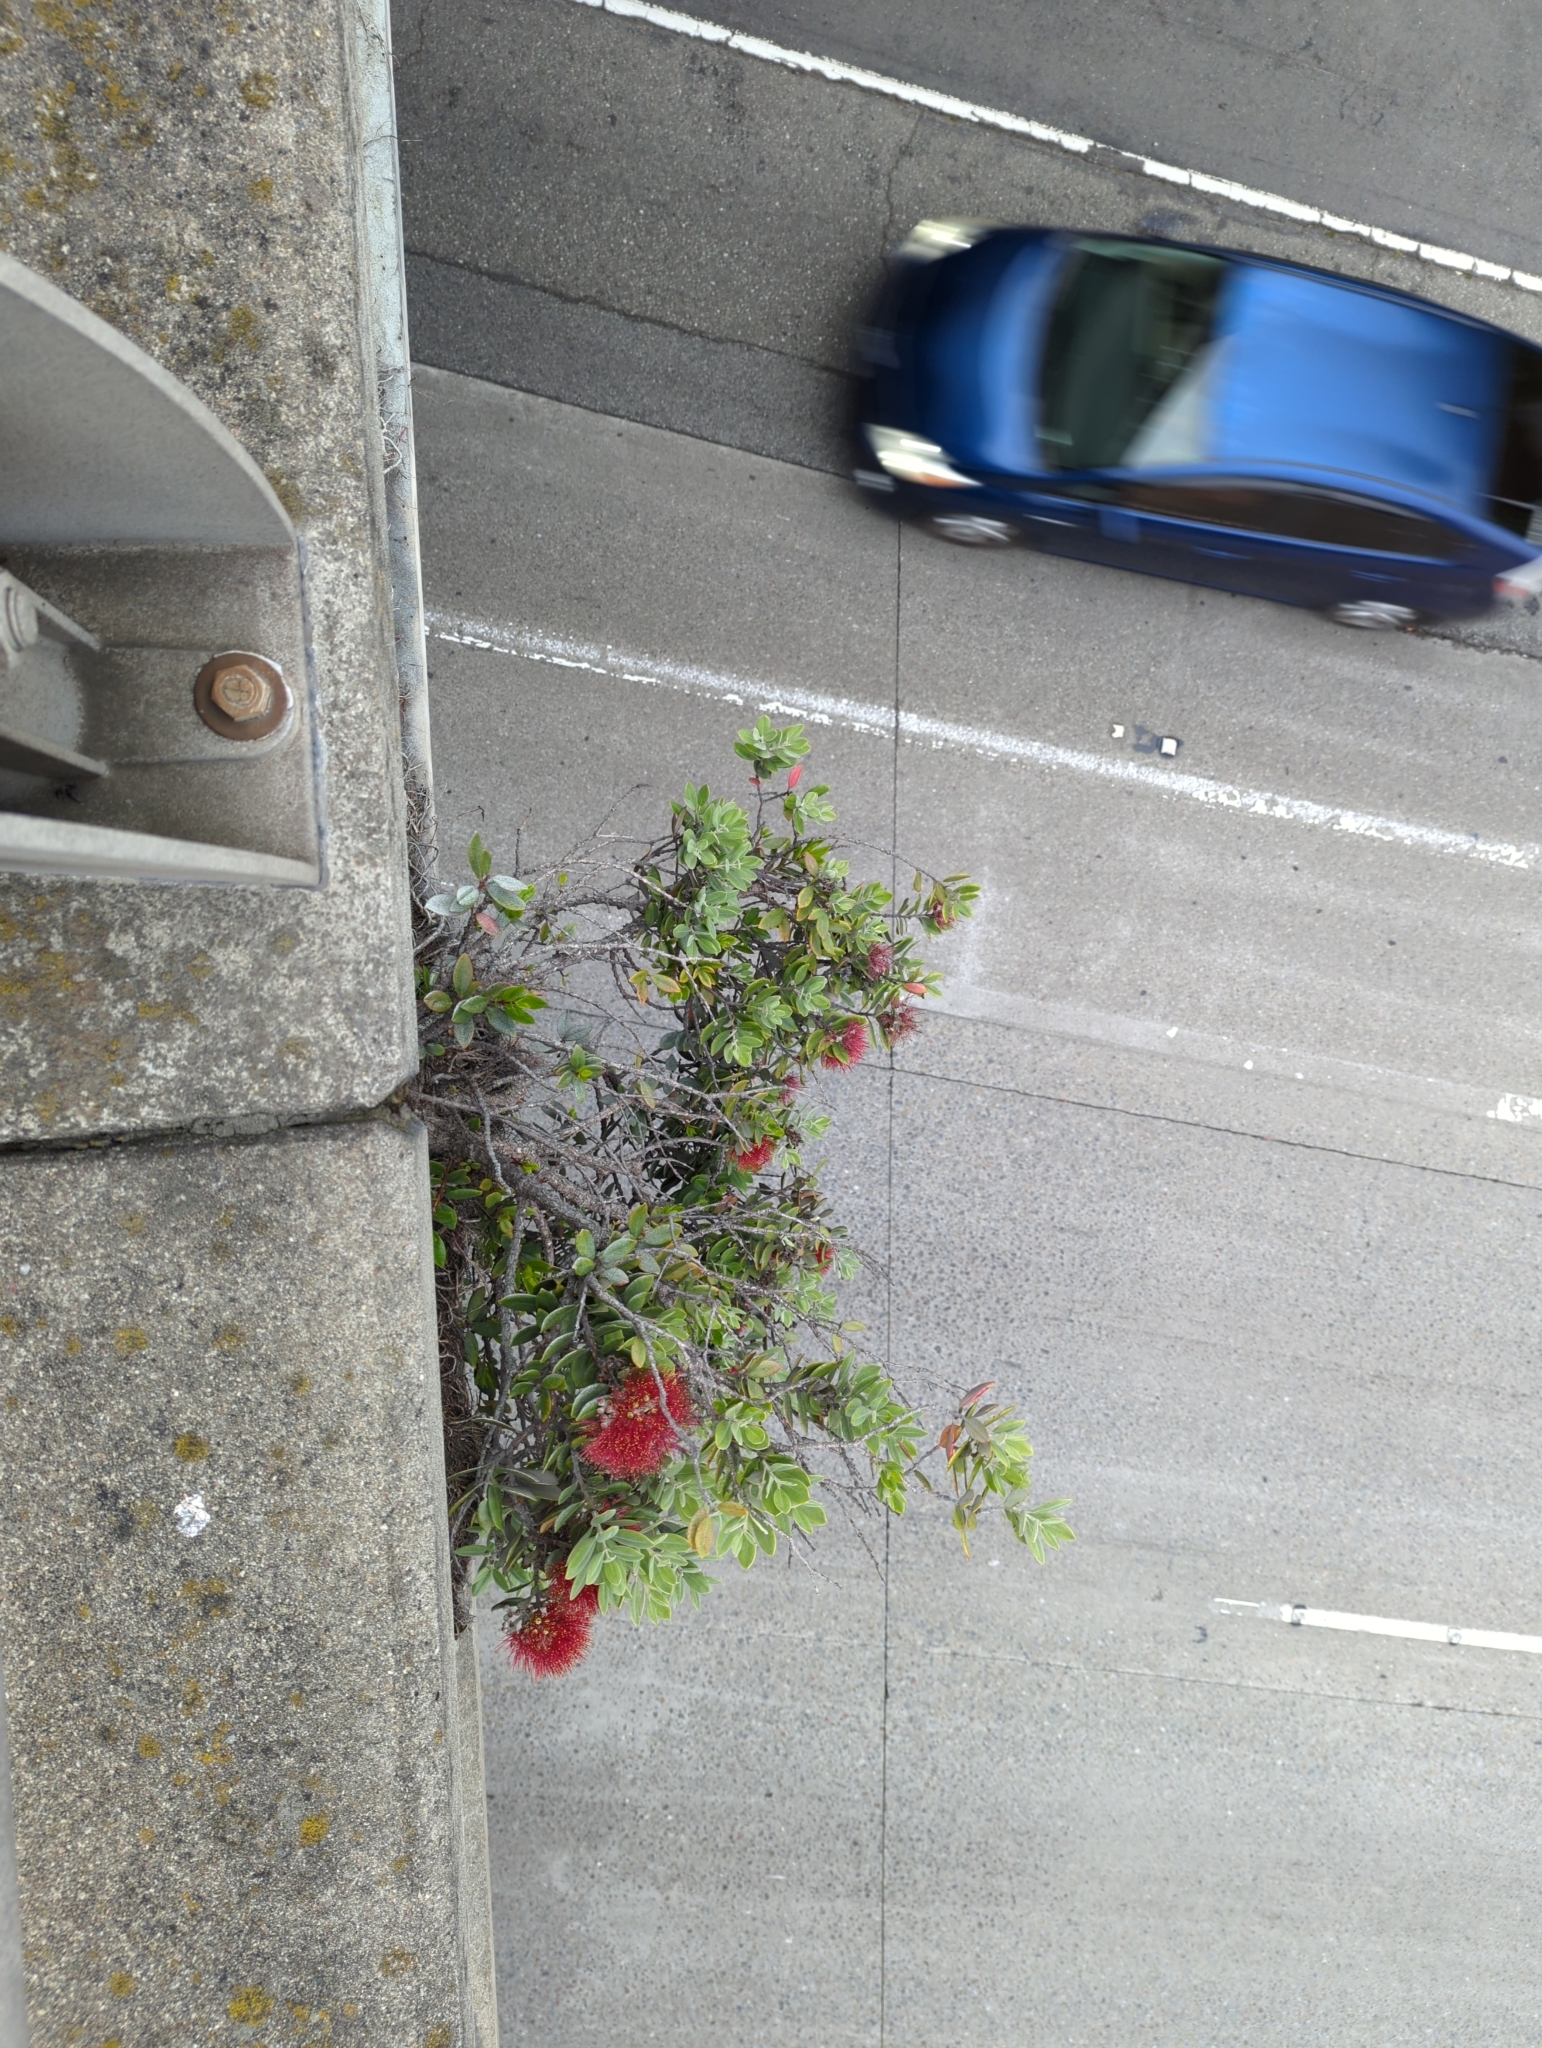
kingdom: Plantae
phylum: Tracheophyta
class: Magnoliopsida
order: Myrtales
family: Myrtaceae
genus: Metrosideros
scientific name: Metrosideros excelsa
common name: New zealand christmastree
